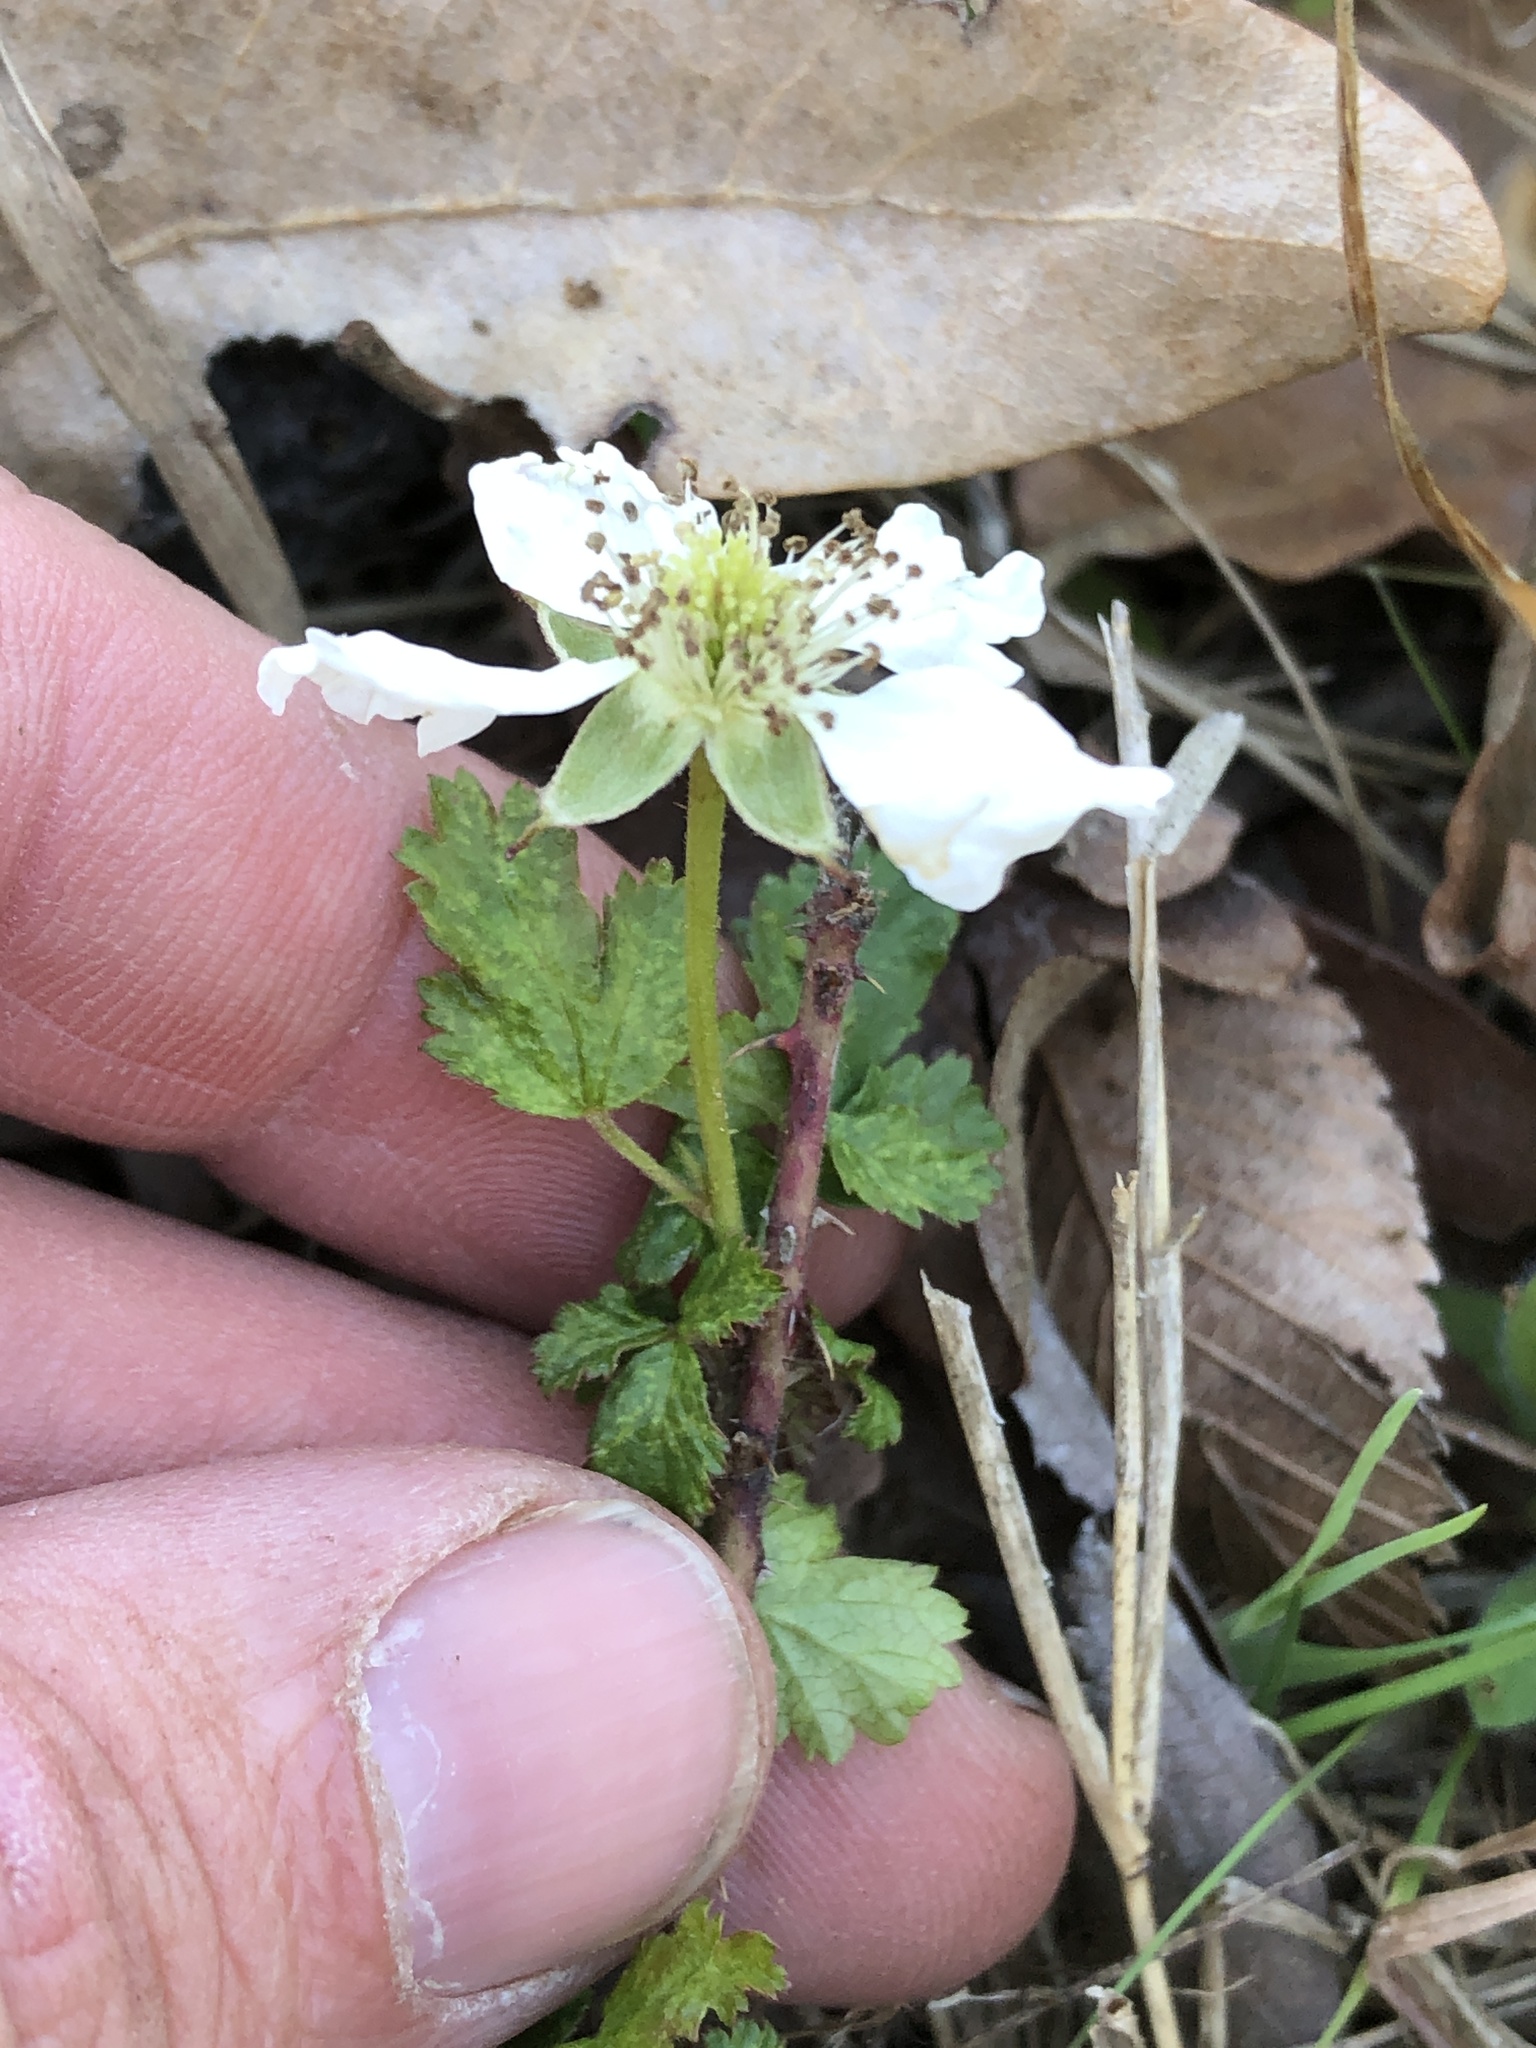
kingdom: Plantae
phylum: Tracheophyta
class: Magnoliopsida
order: Rosales
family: Rosaceae
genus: Rubus
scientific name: Rubus trivialis
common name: Southern dewberry
